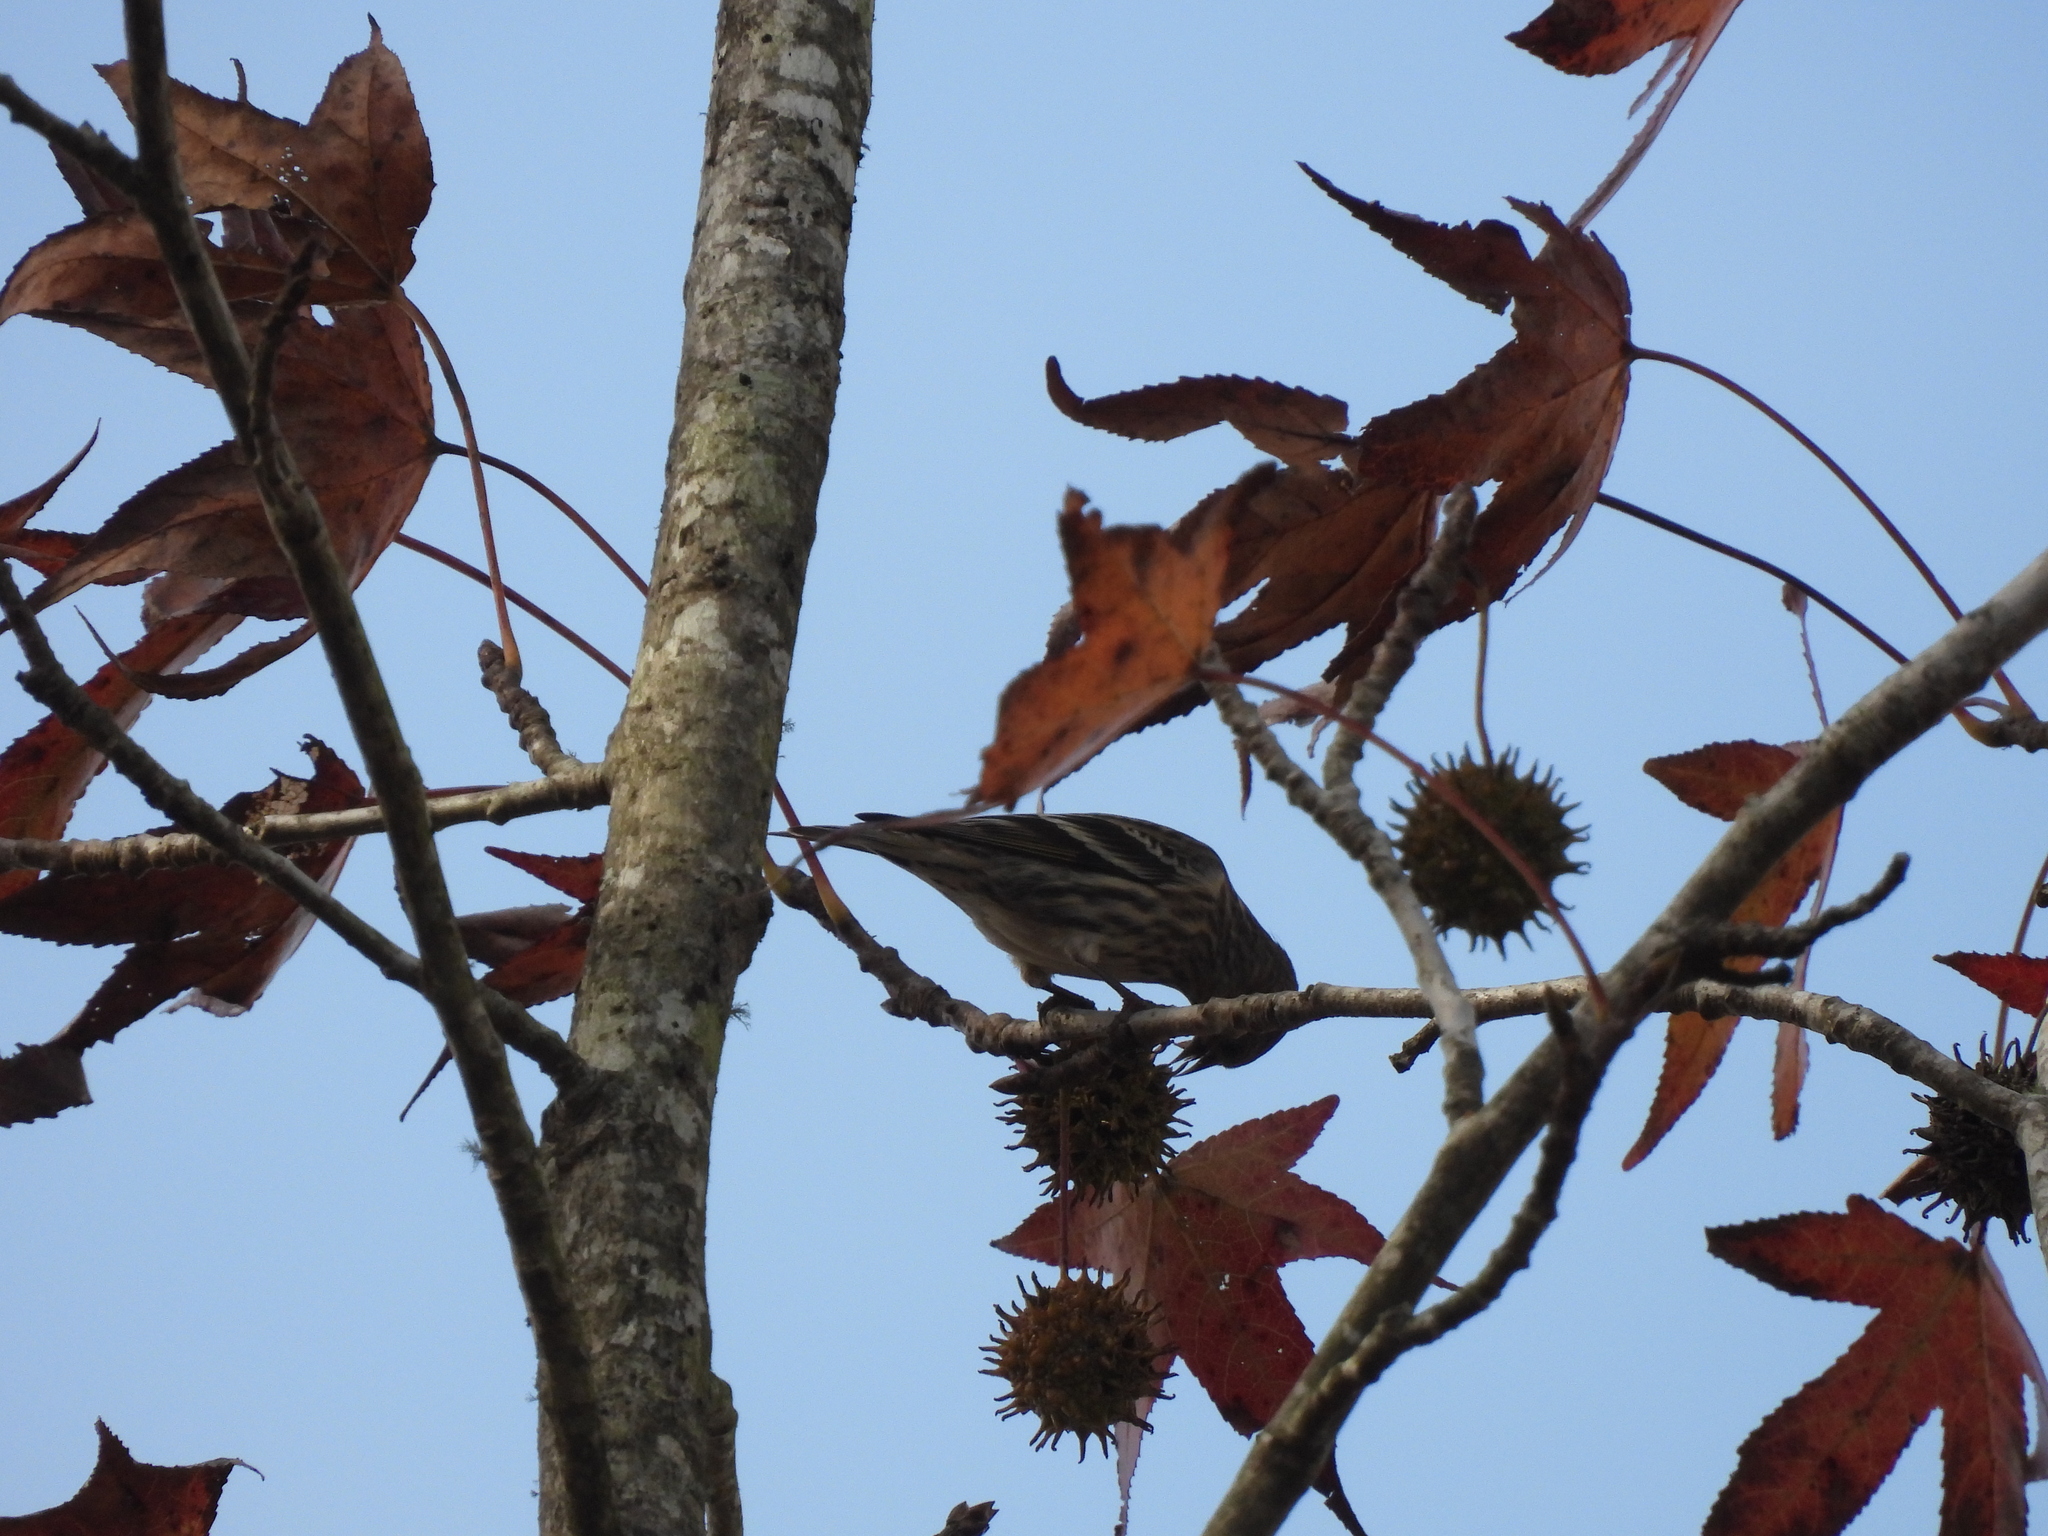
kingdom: Animalia
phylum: Chordata
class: Aves
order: Passeriformes
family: Fringillidae
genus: Spinus
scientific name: Spinus pinus
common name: Pine siskin
